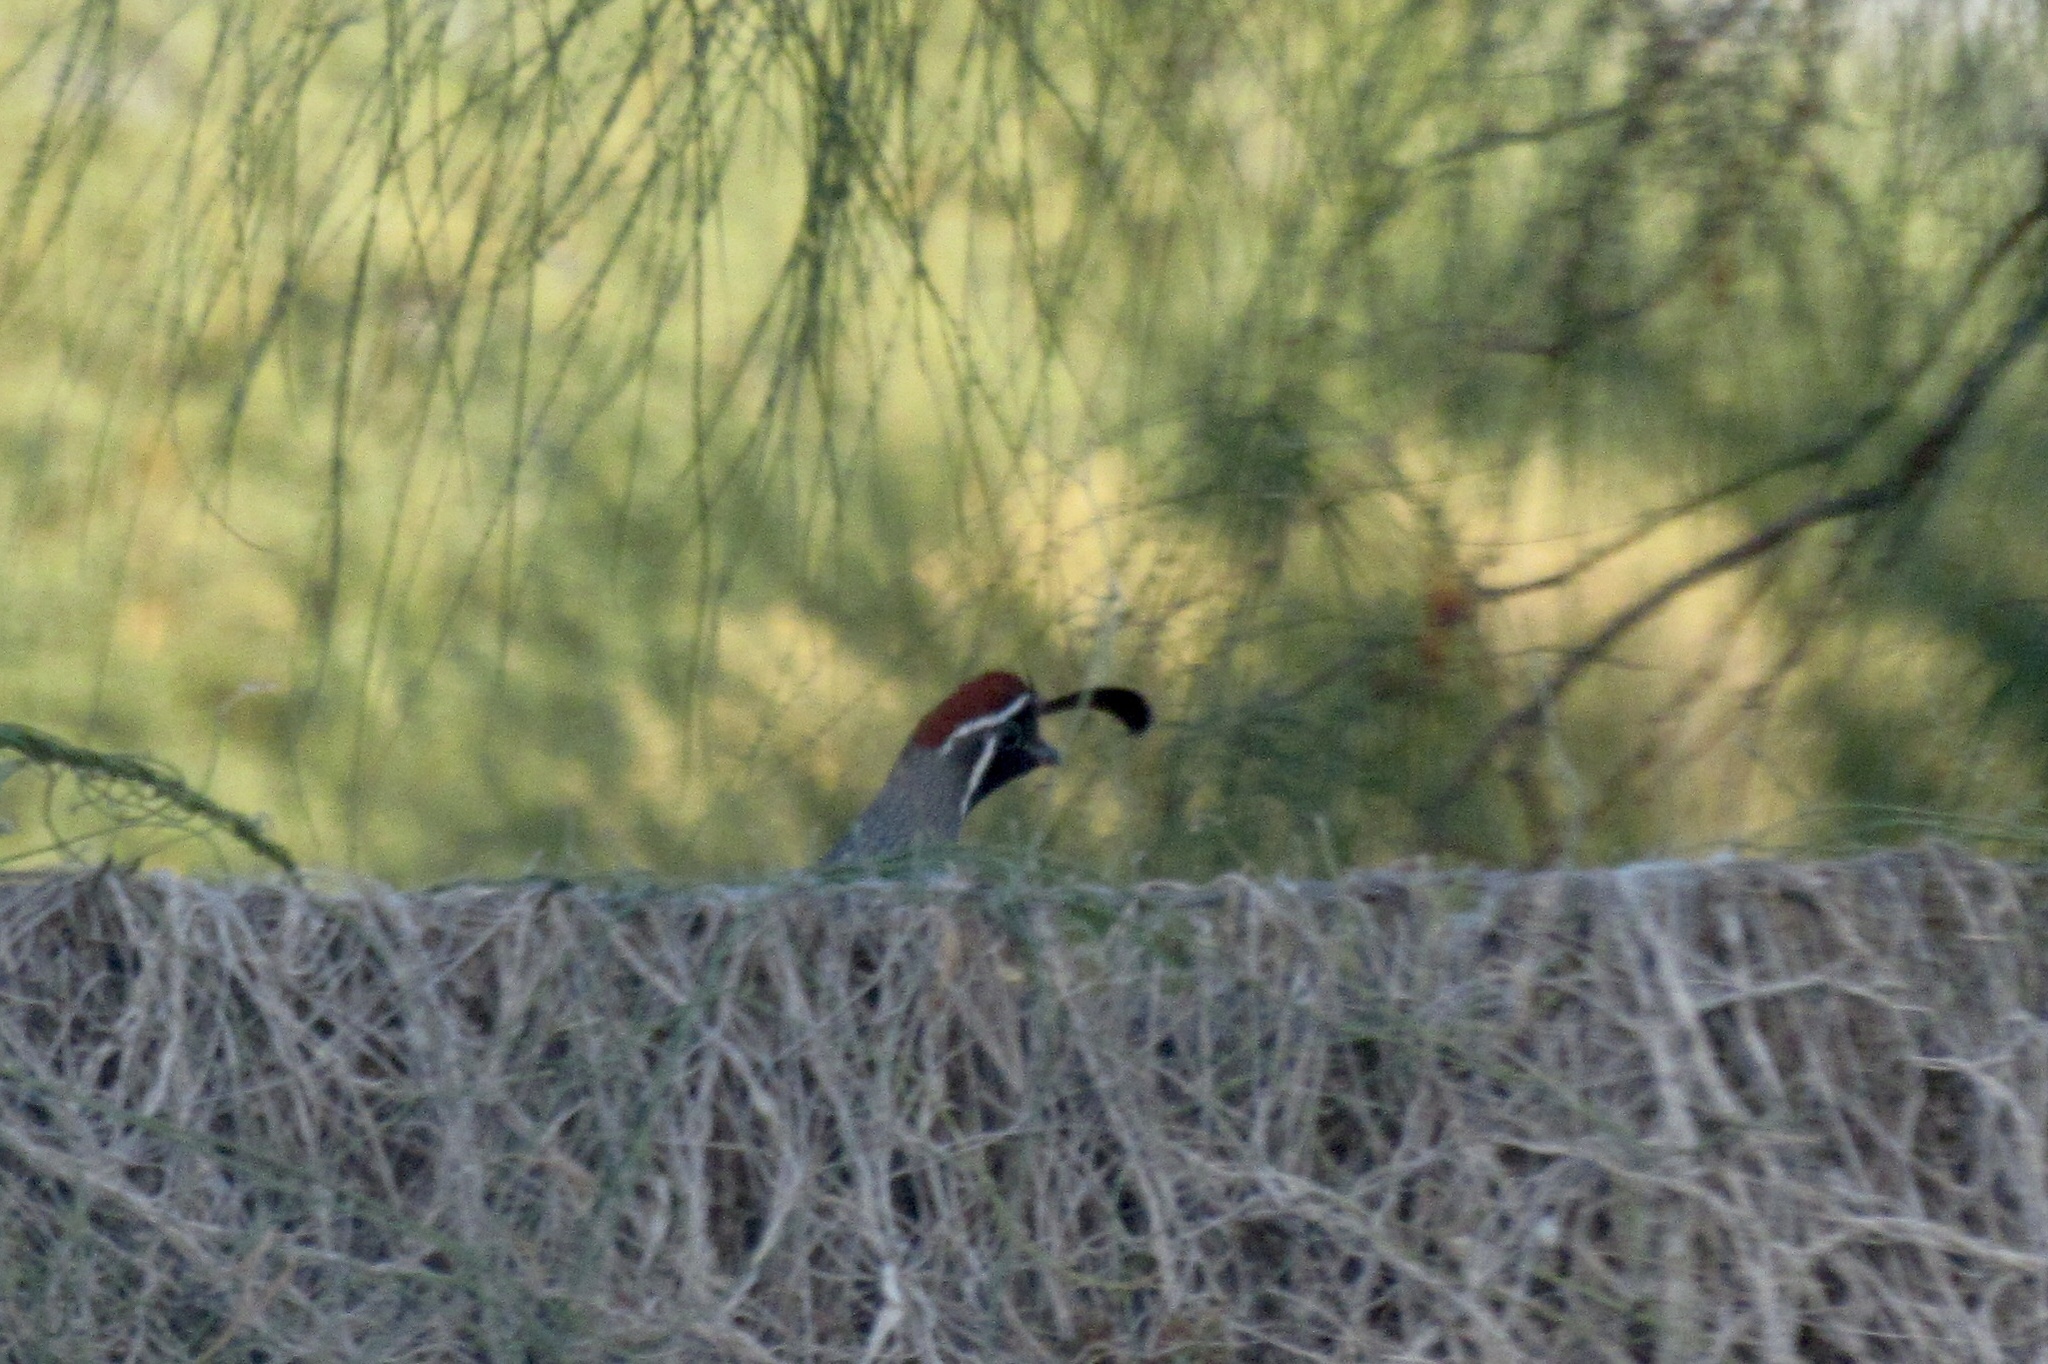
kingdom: Animalia
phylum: Chordata
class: Aves
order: Galliformes
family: Odontophoridae
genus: Callipepla
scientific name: Callipepla gambelii
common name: Gambel's quail
